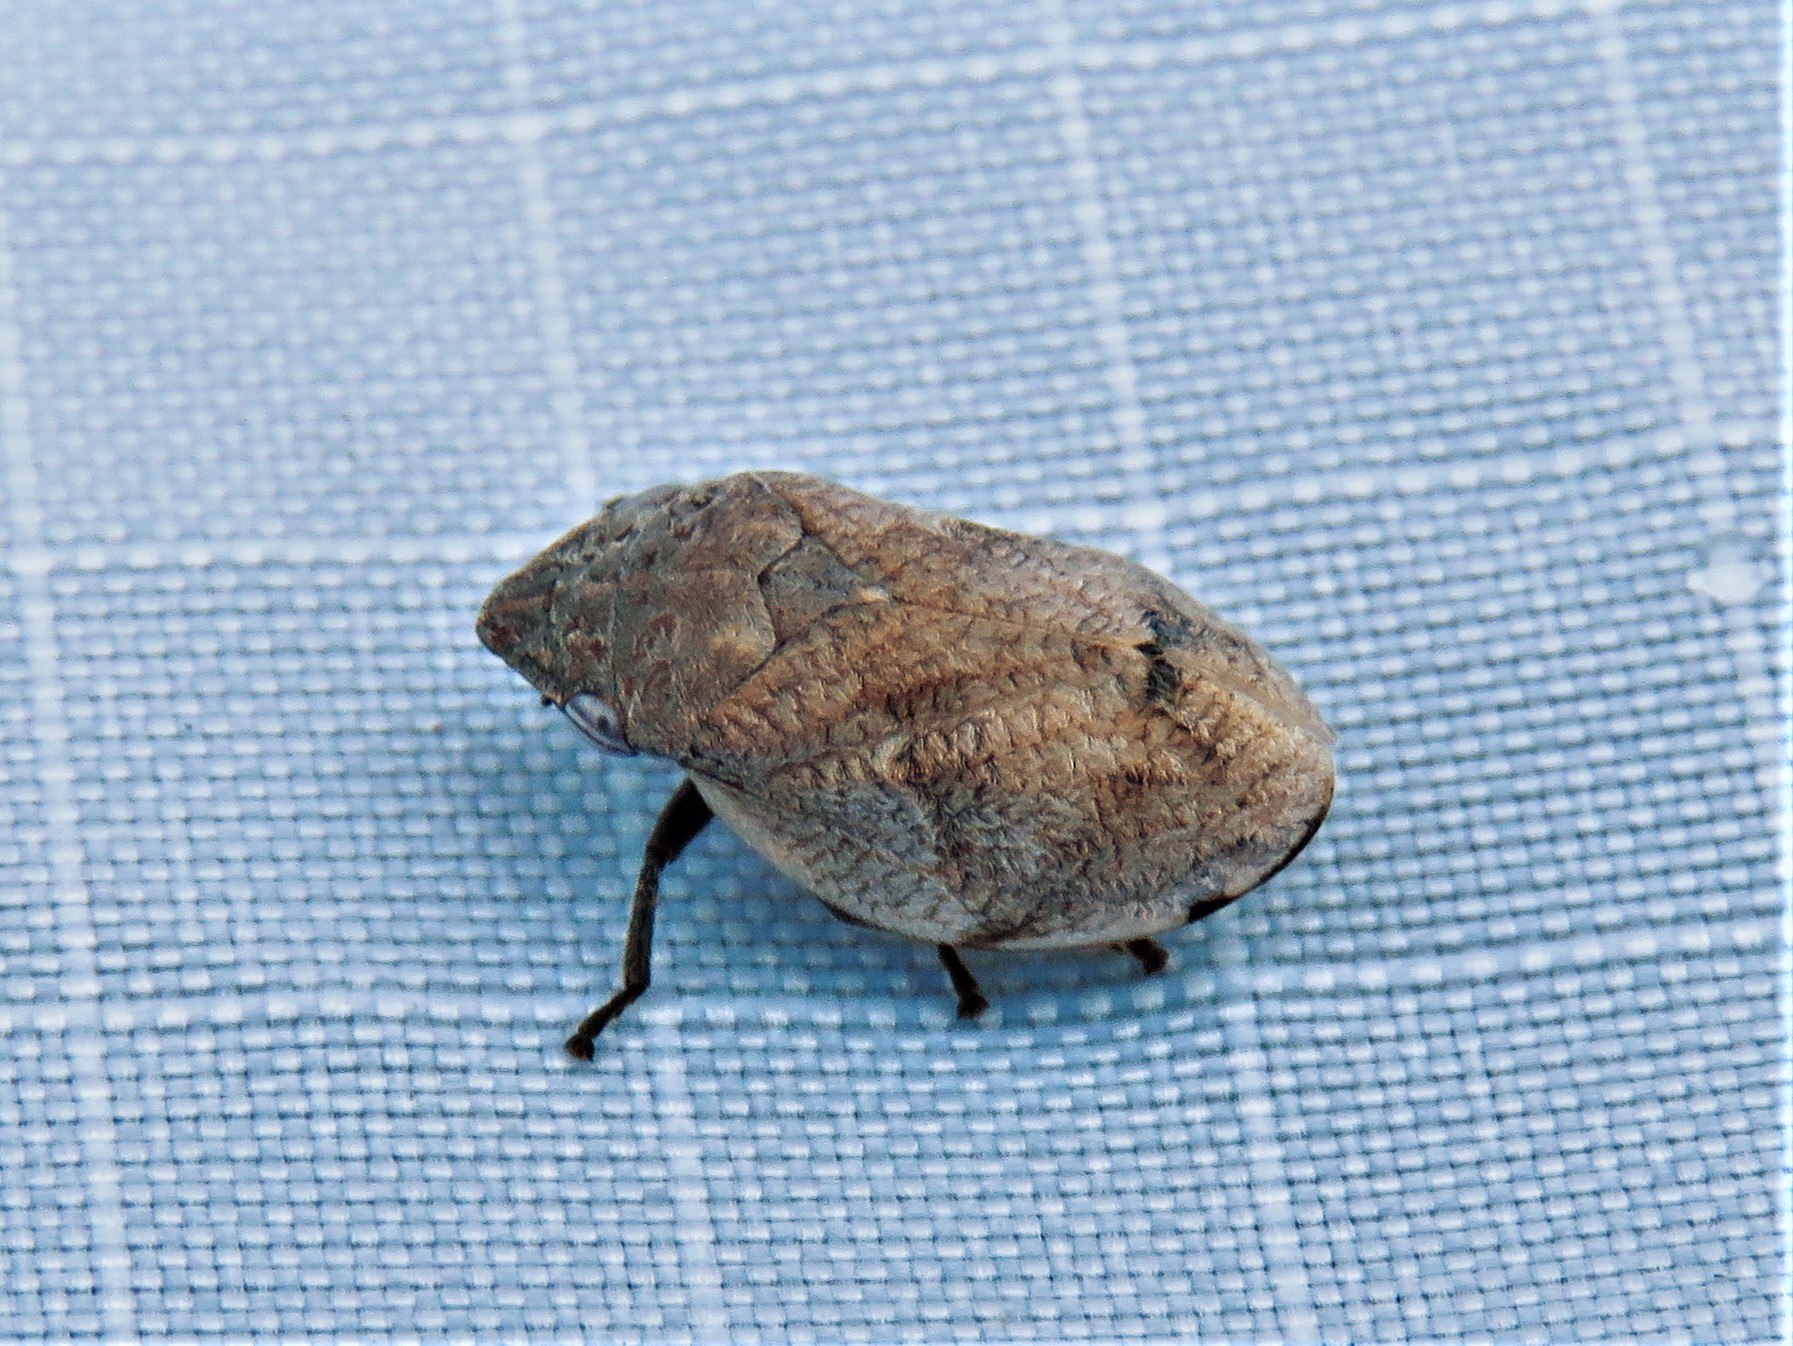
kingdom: Animalia
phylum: Arthropoda
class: Insecta
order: Hemiptera
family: Aphrophoridae
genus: Lepyronia
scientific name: Lepyronia gibbosa
